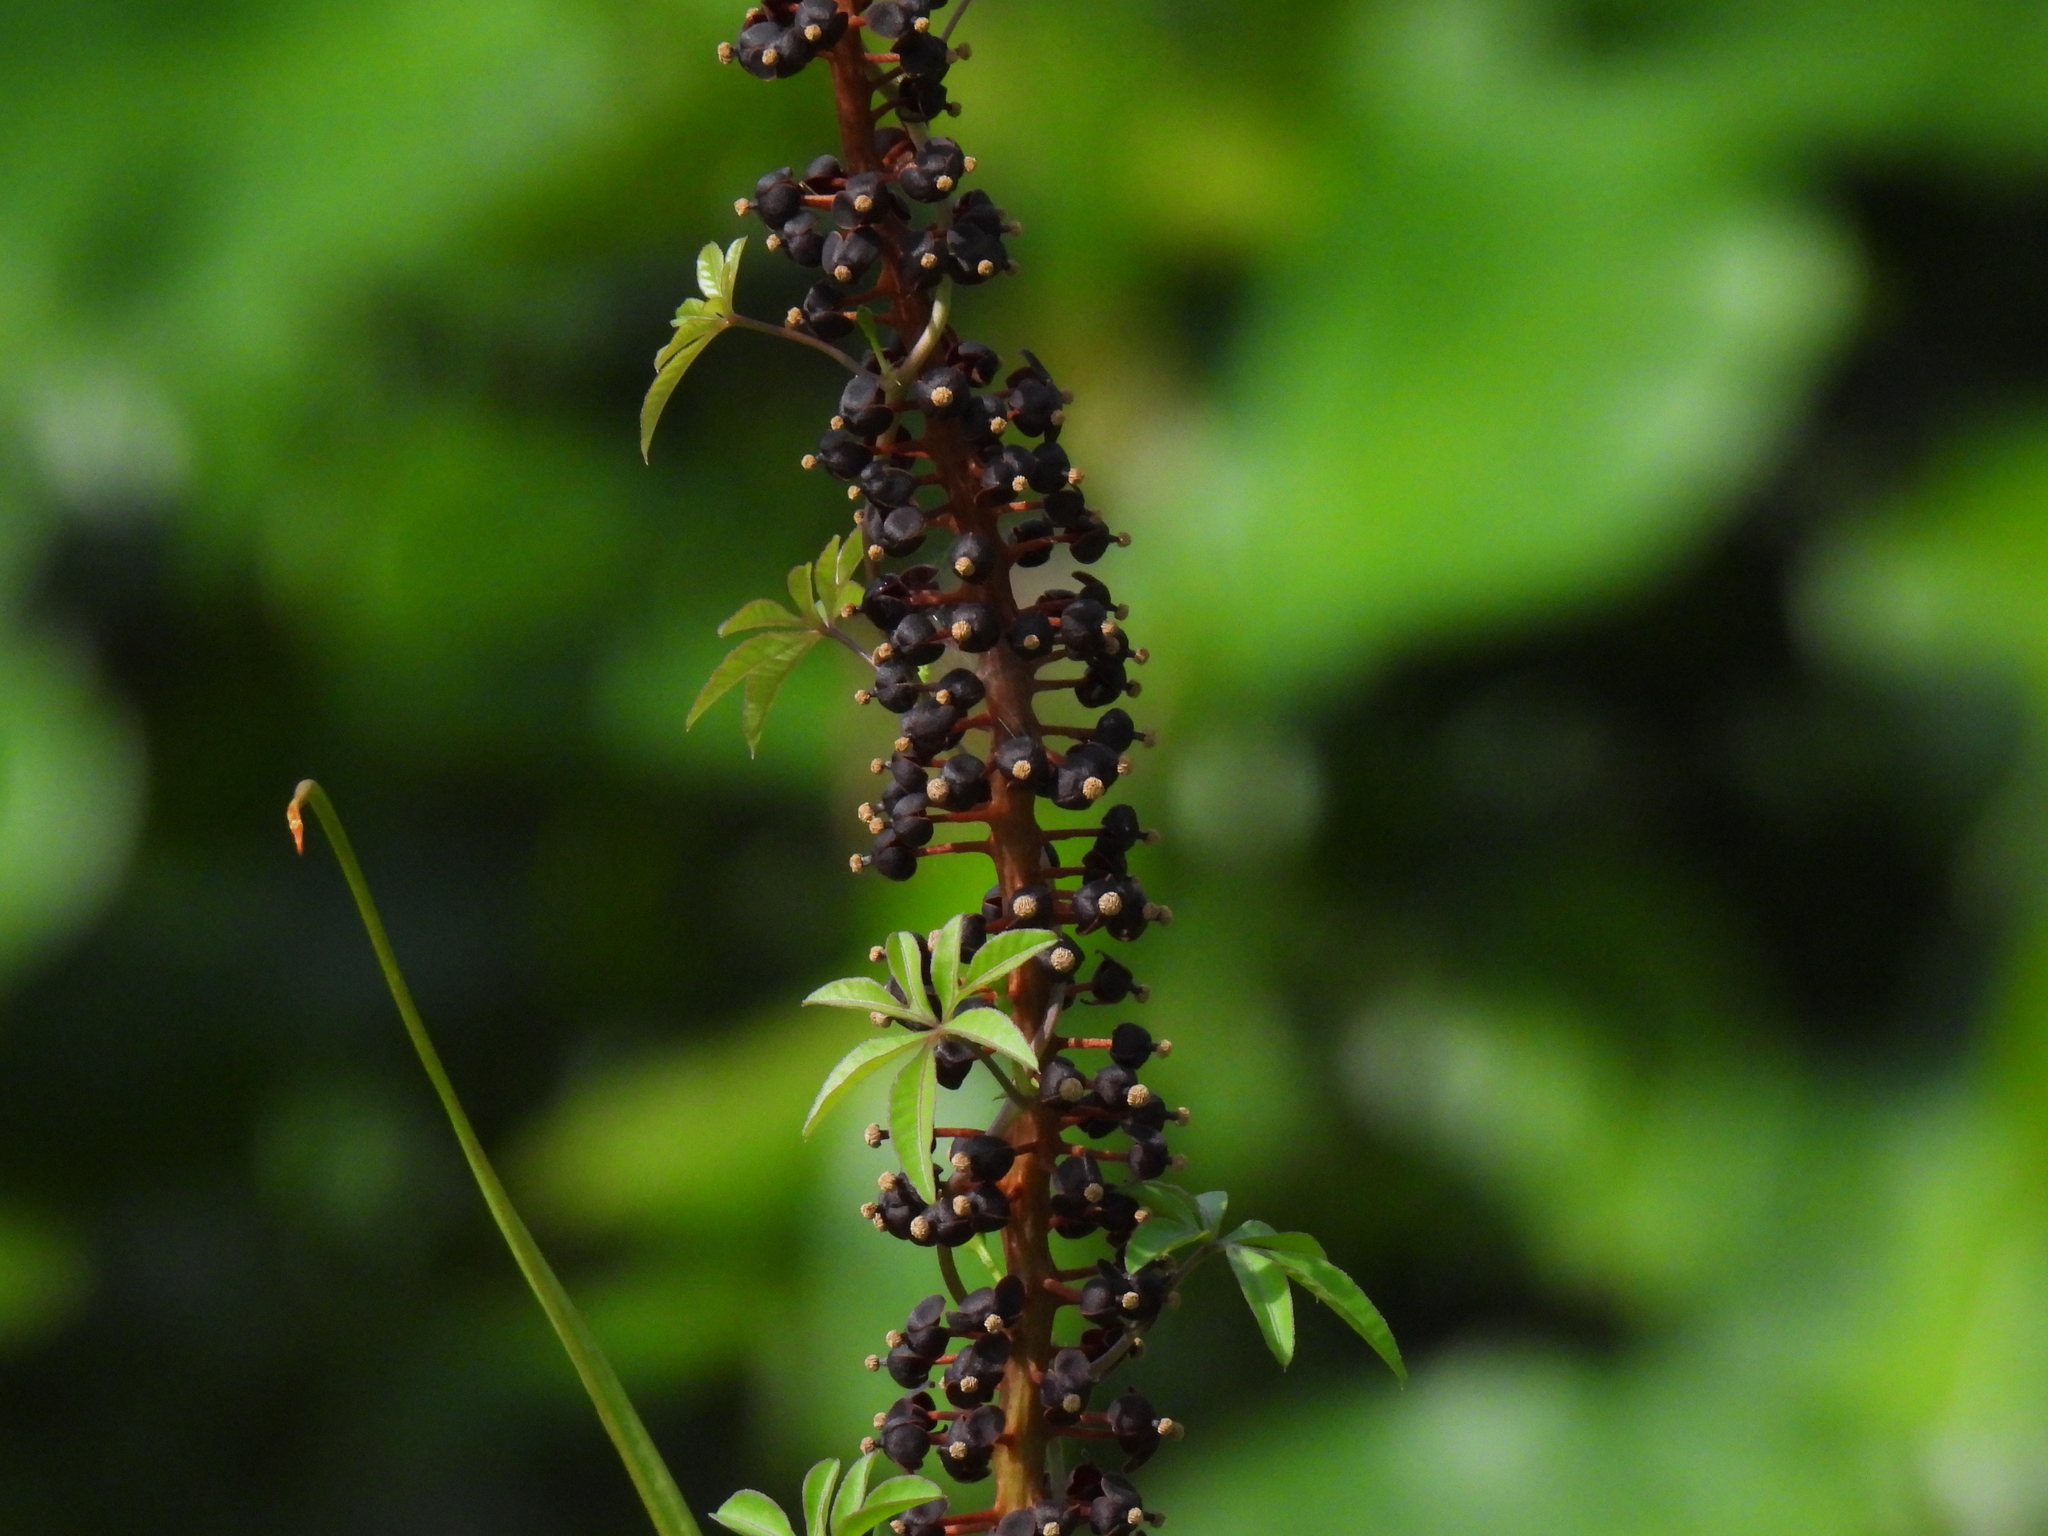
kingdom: Plantae
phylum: Tracheophyta
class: Magnoliopsida
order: Caryophyllales
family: Nepenthaceae
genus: Nepenthes
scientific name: Nepenthes gracilis
